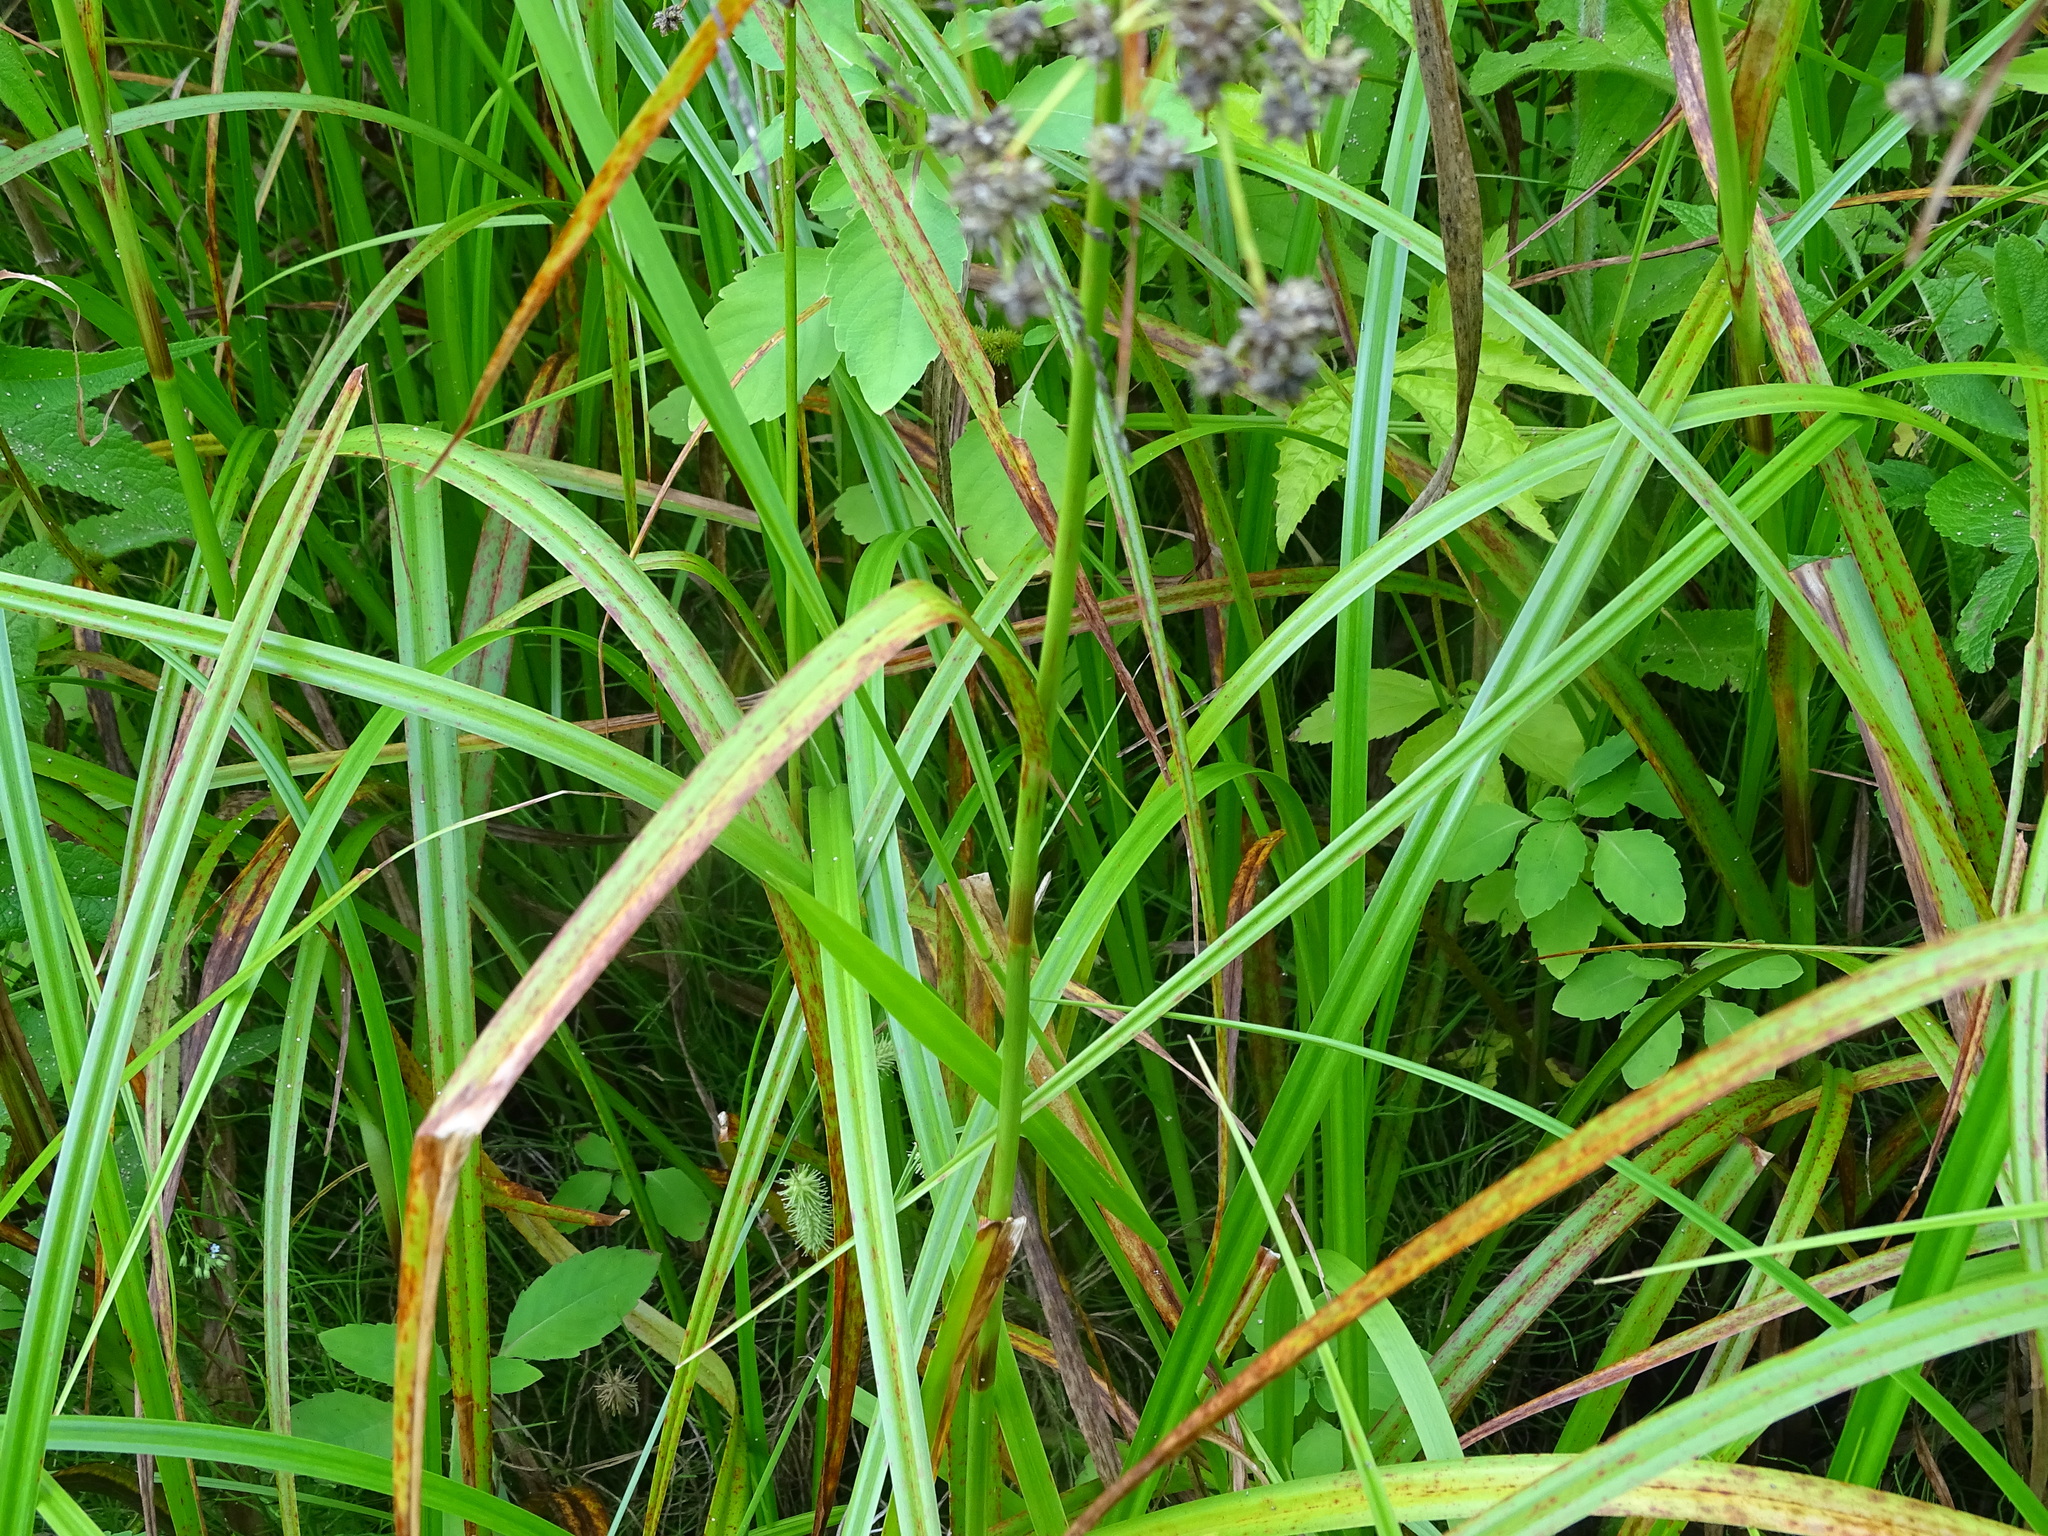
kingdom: Plantae
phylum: Tracheophyta
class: Liliopsida
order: Poales
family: Cyperaceae
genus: Scirpus
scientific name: Scirpus microcarpus
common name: Panicled bulrush
